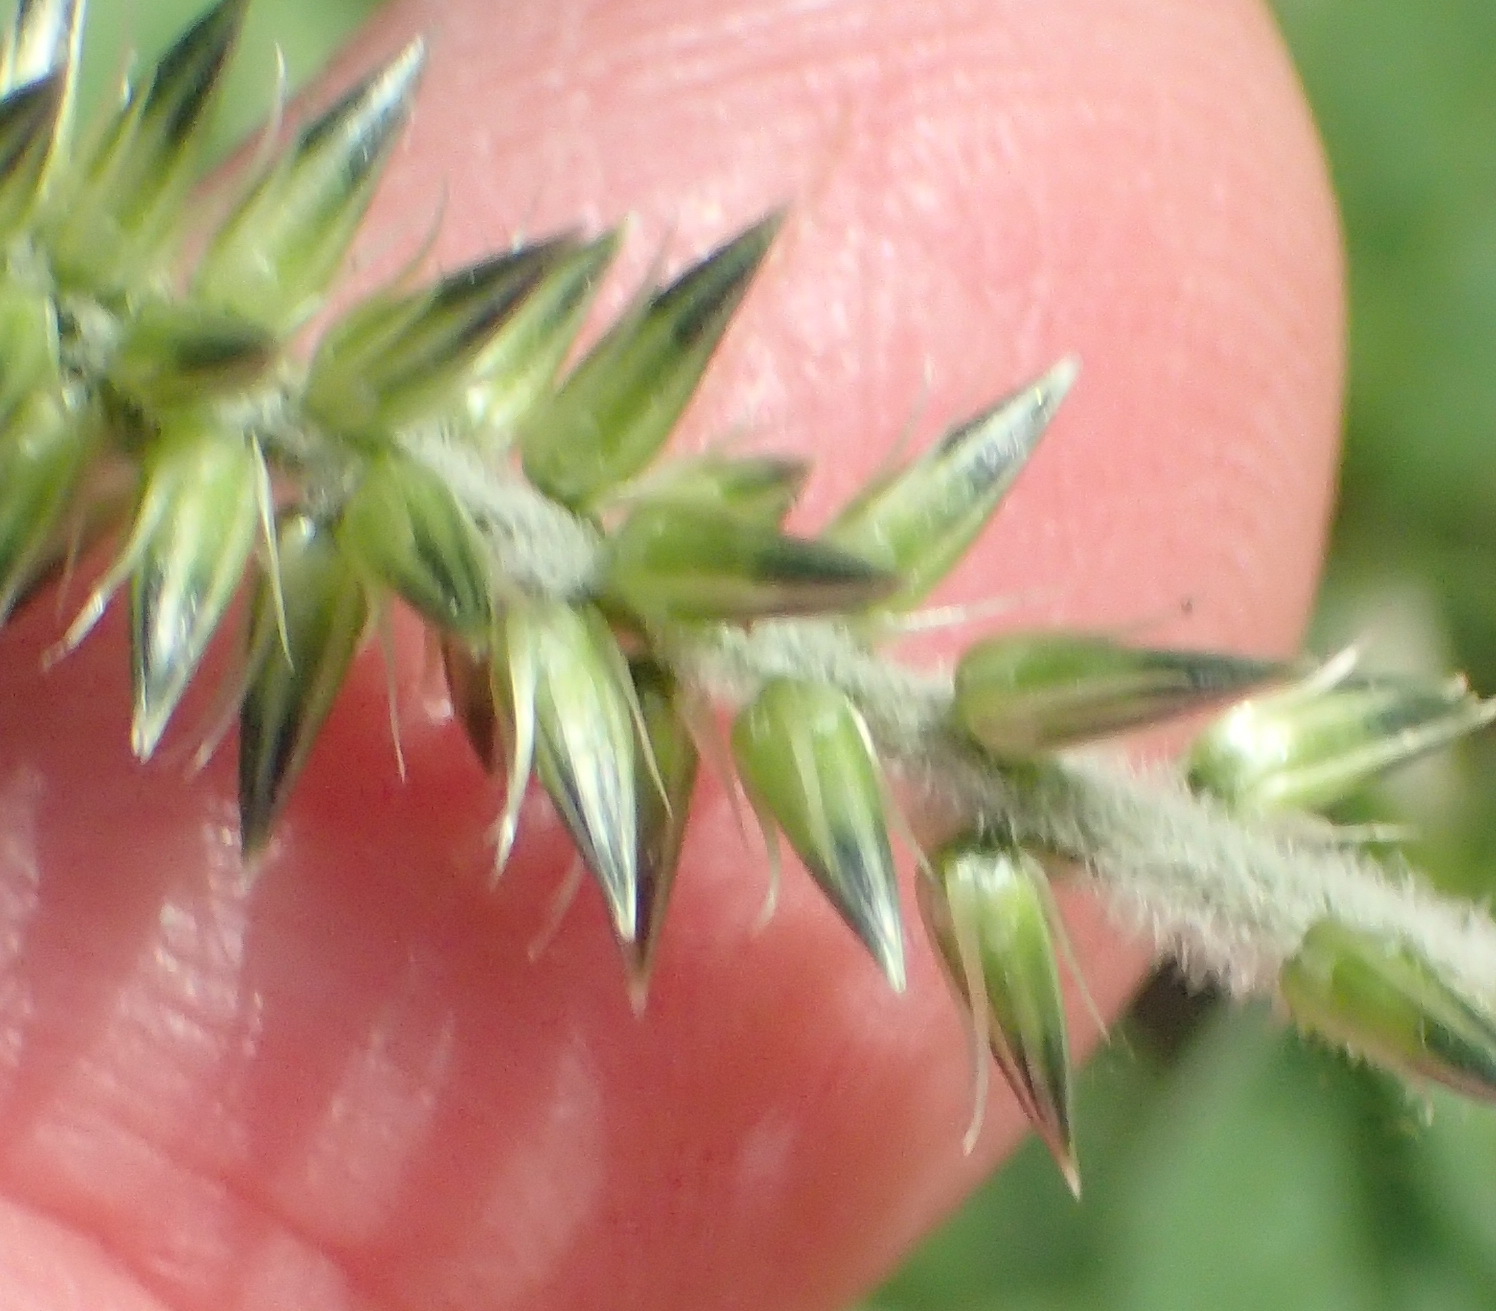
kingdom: Plantae
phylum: Tracheophyta
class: Magnoliopsida
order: Caryophyllales
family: Amaranthaceae
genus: Achyranthes
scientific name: Achyranthes aspera
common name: Devil's horsewhip
